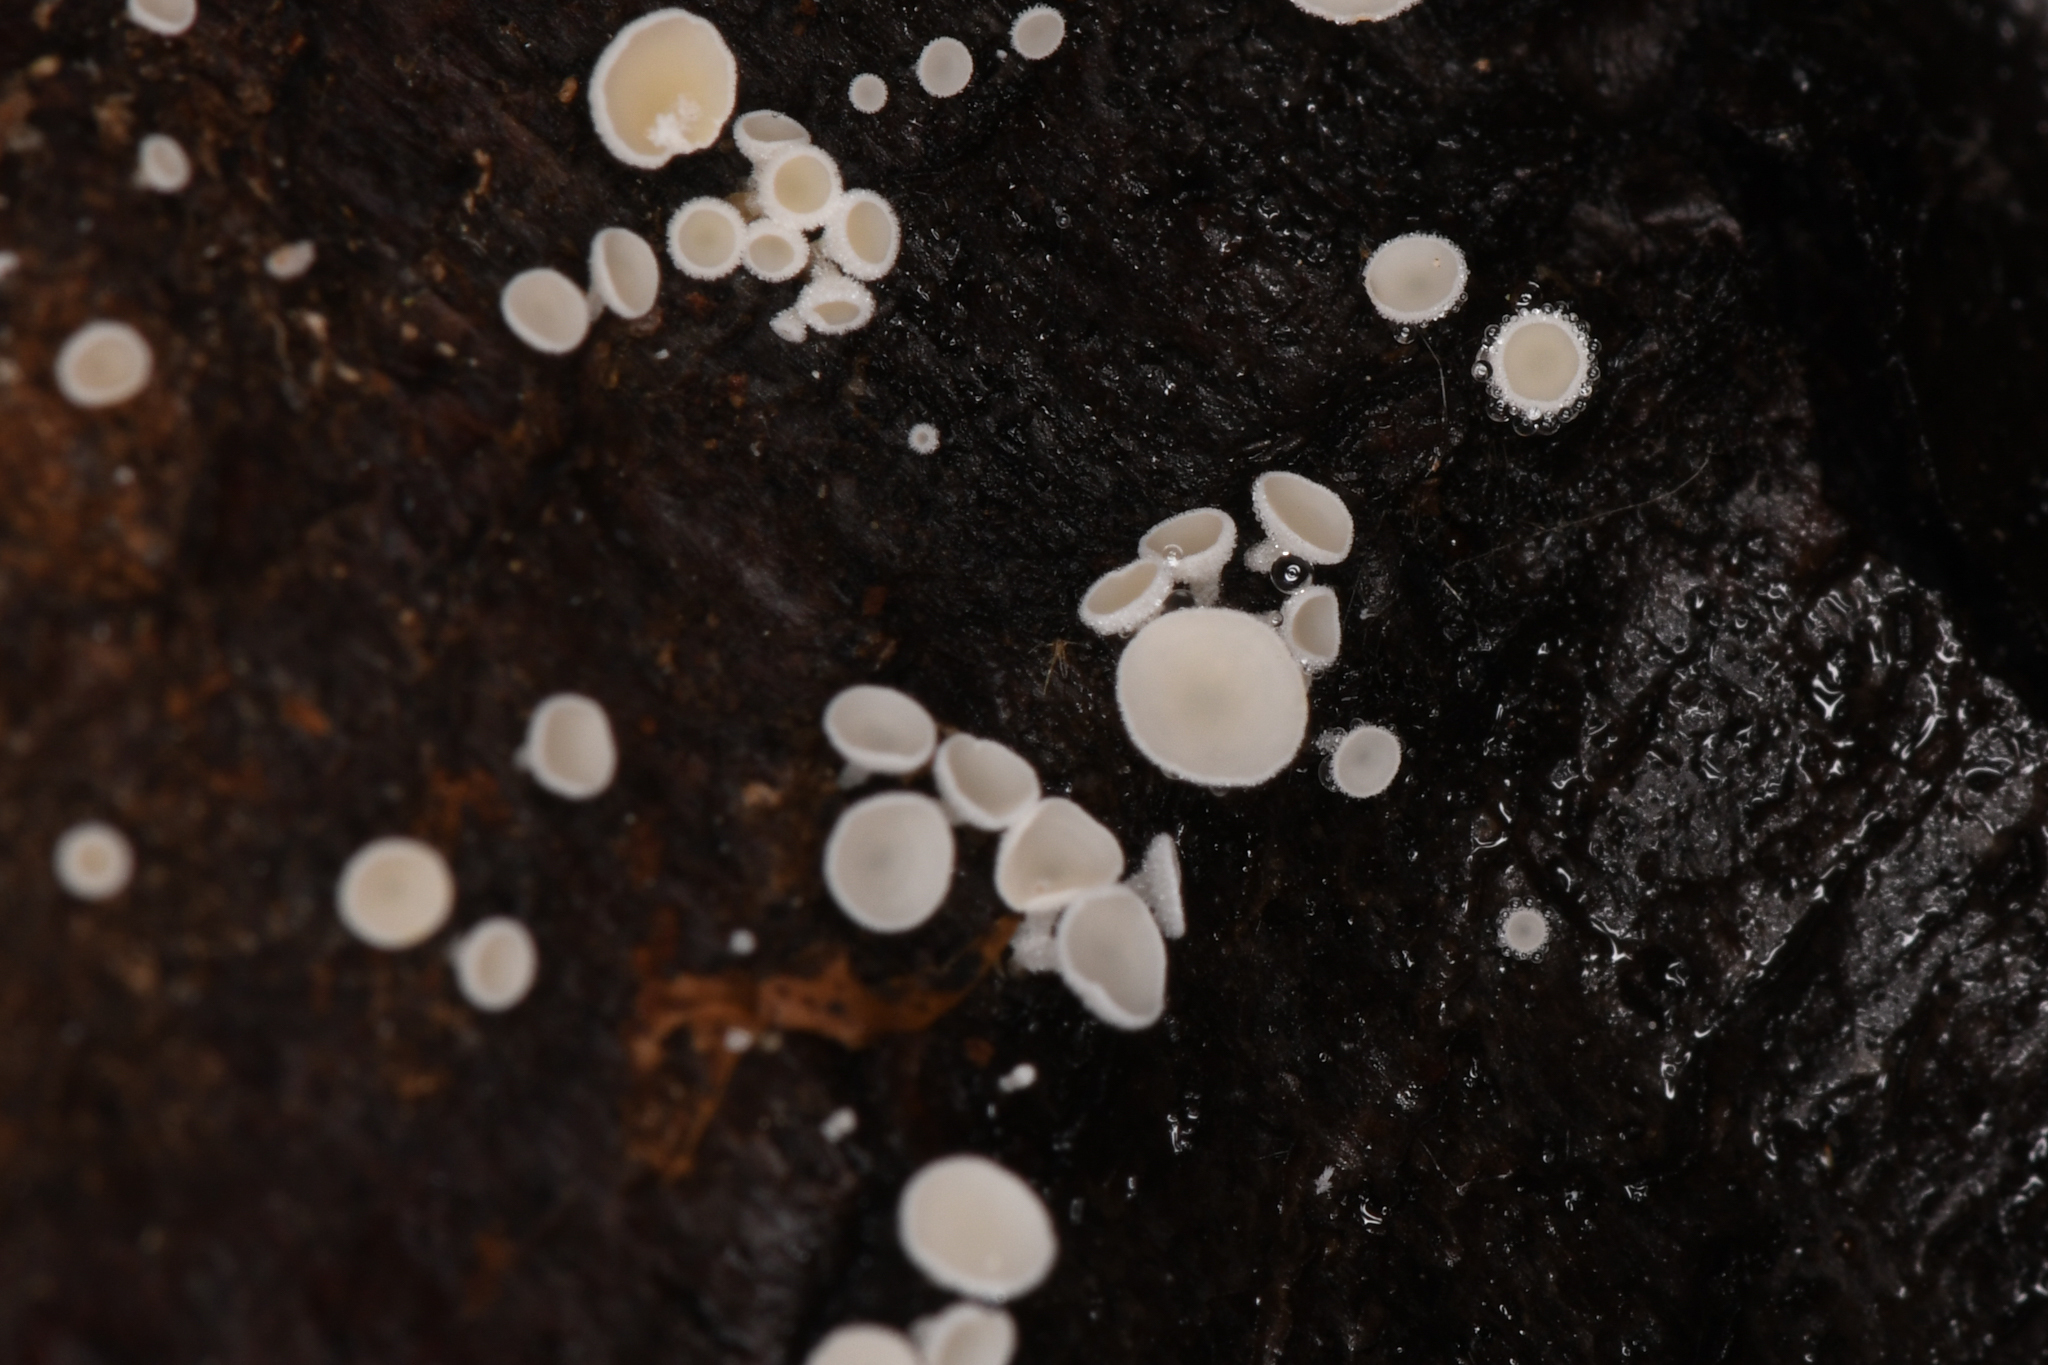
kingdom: Fungi
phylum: Ascomycota
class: Leotiomycetes
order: Helotiales
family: Lachnaceae
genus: Lachnum
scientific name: Lachnum virgineum
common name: Snowy disco
